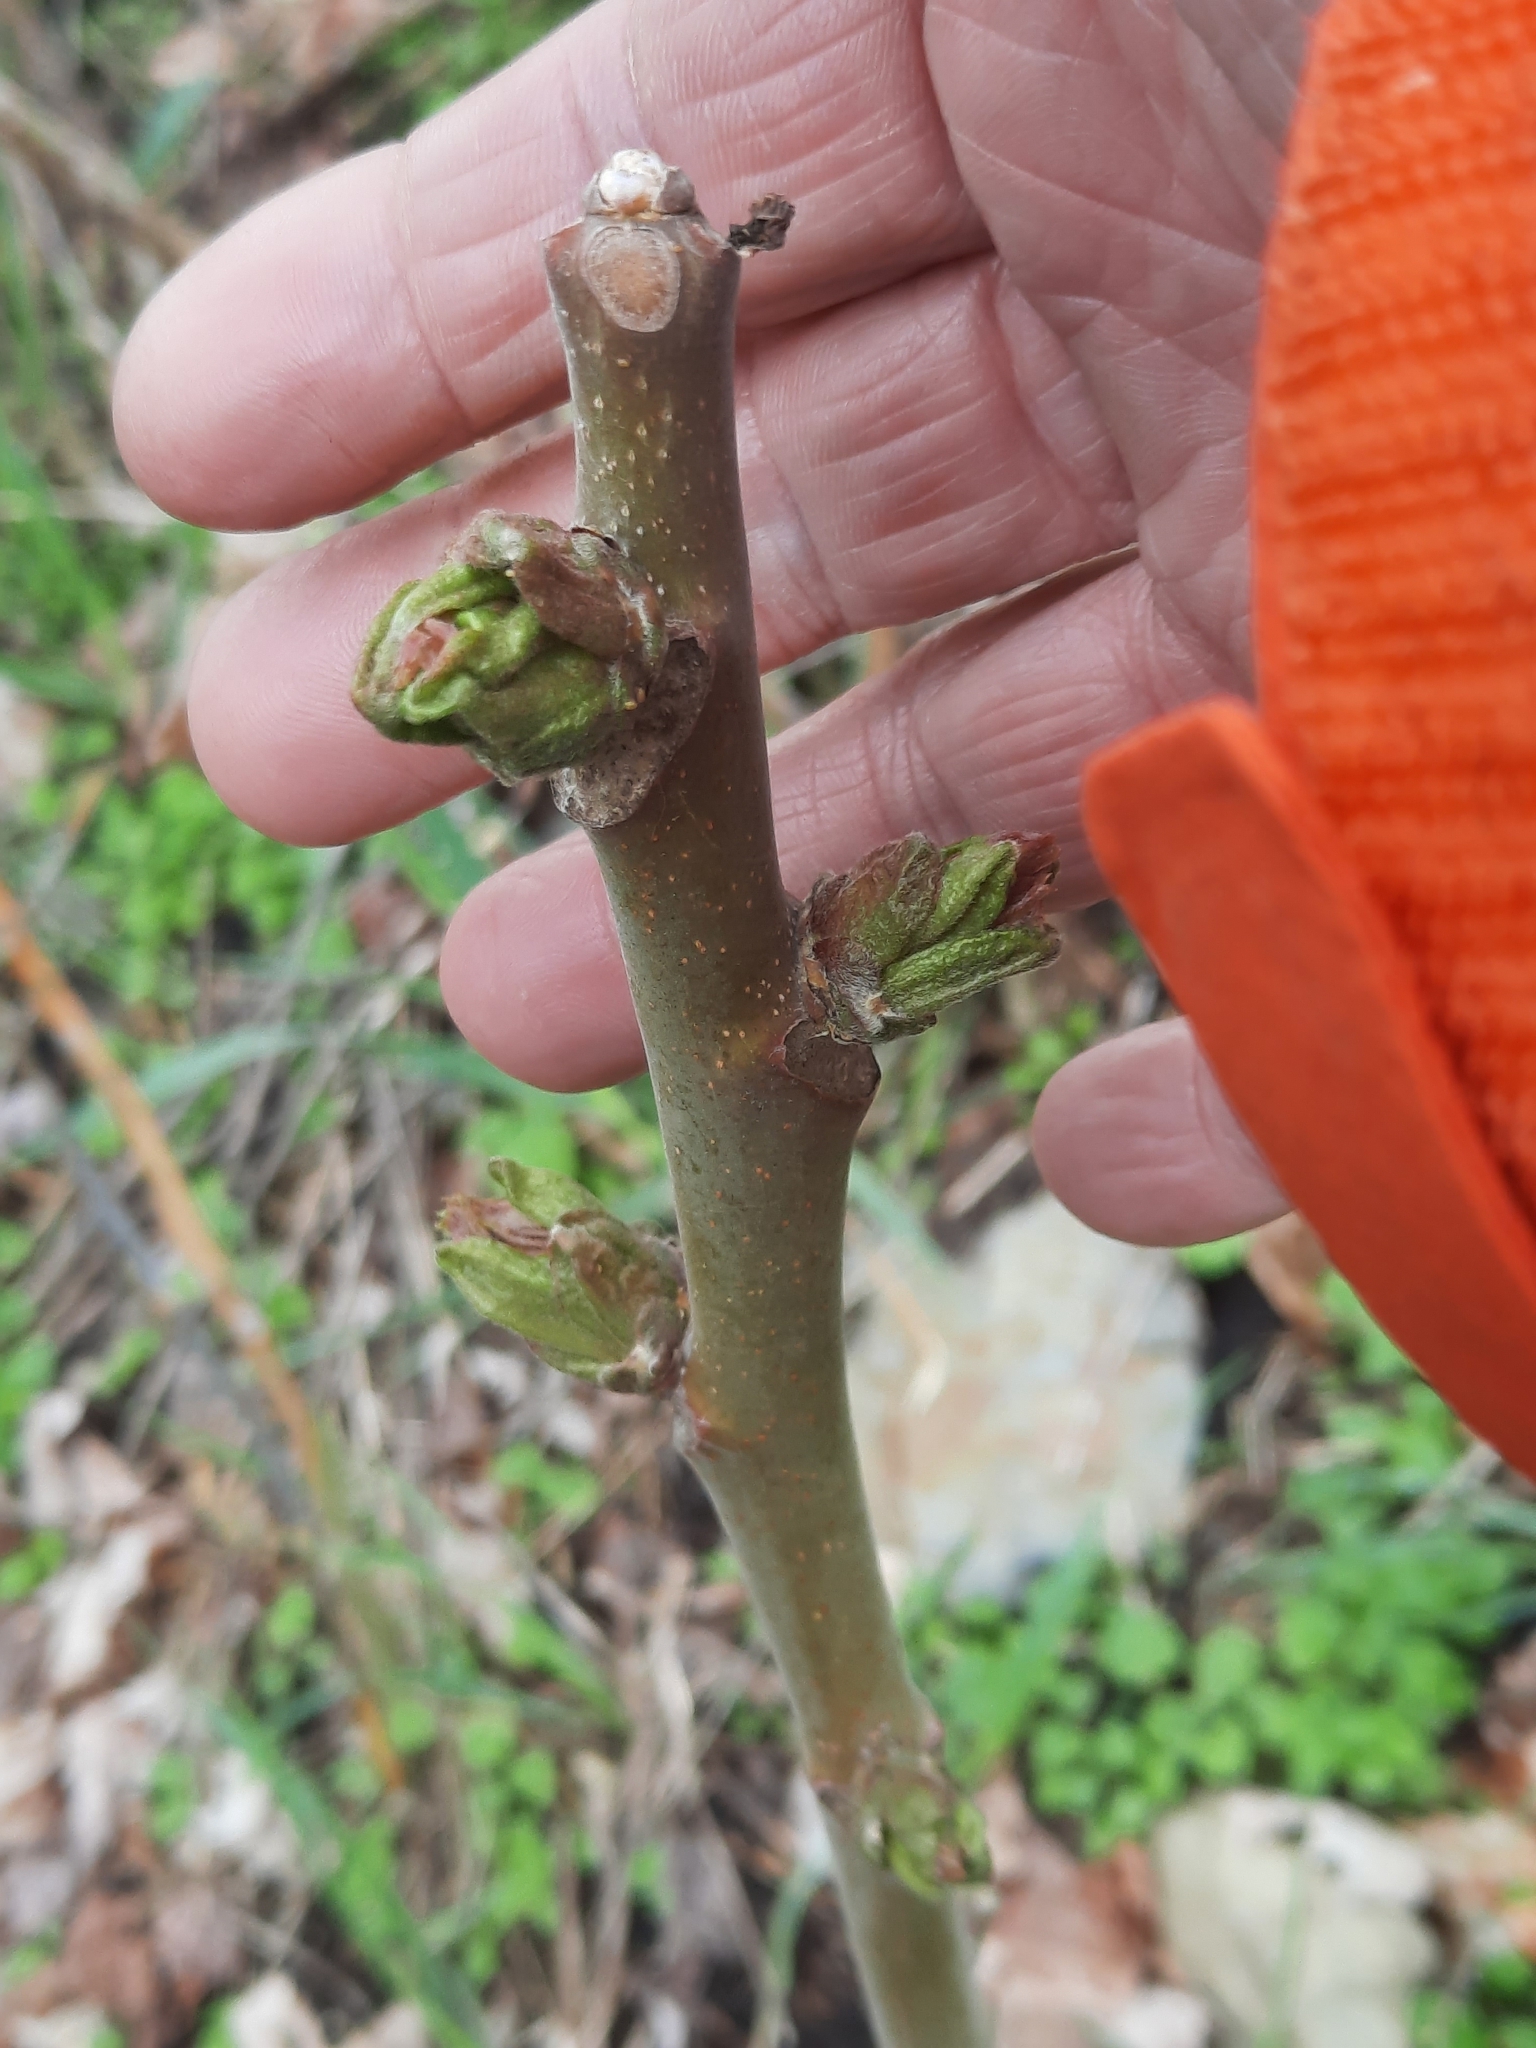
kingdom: Plantae
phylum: Tracheophyta
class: Magnoliopsida
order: Sapindales
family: Simaroubaceae
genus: Ailanthus
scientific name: Ailanthus altissima
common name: Tree-of-heaven
